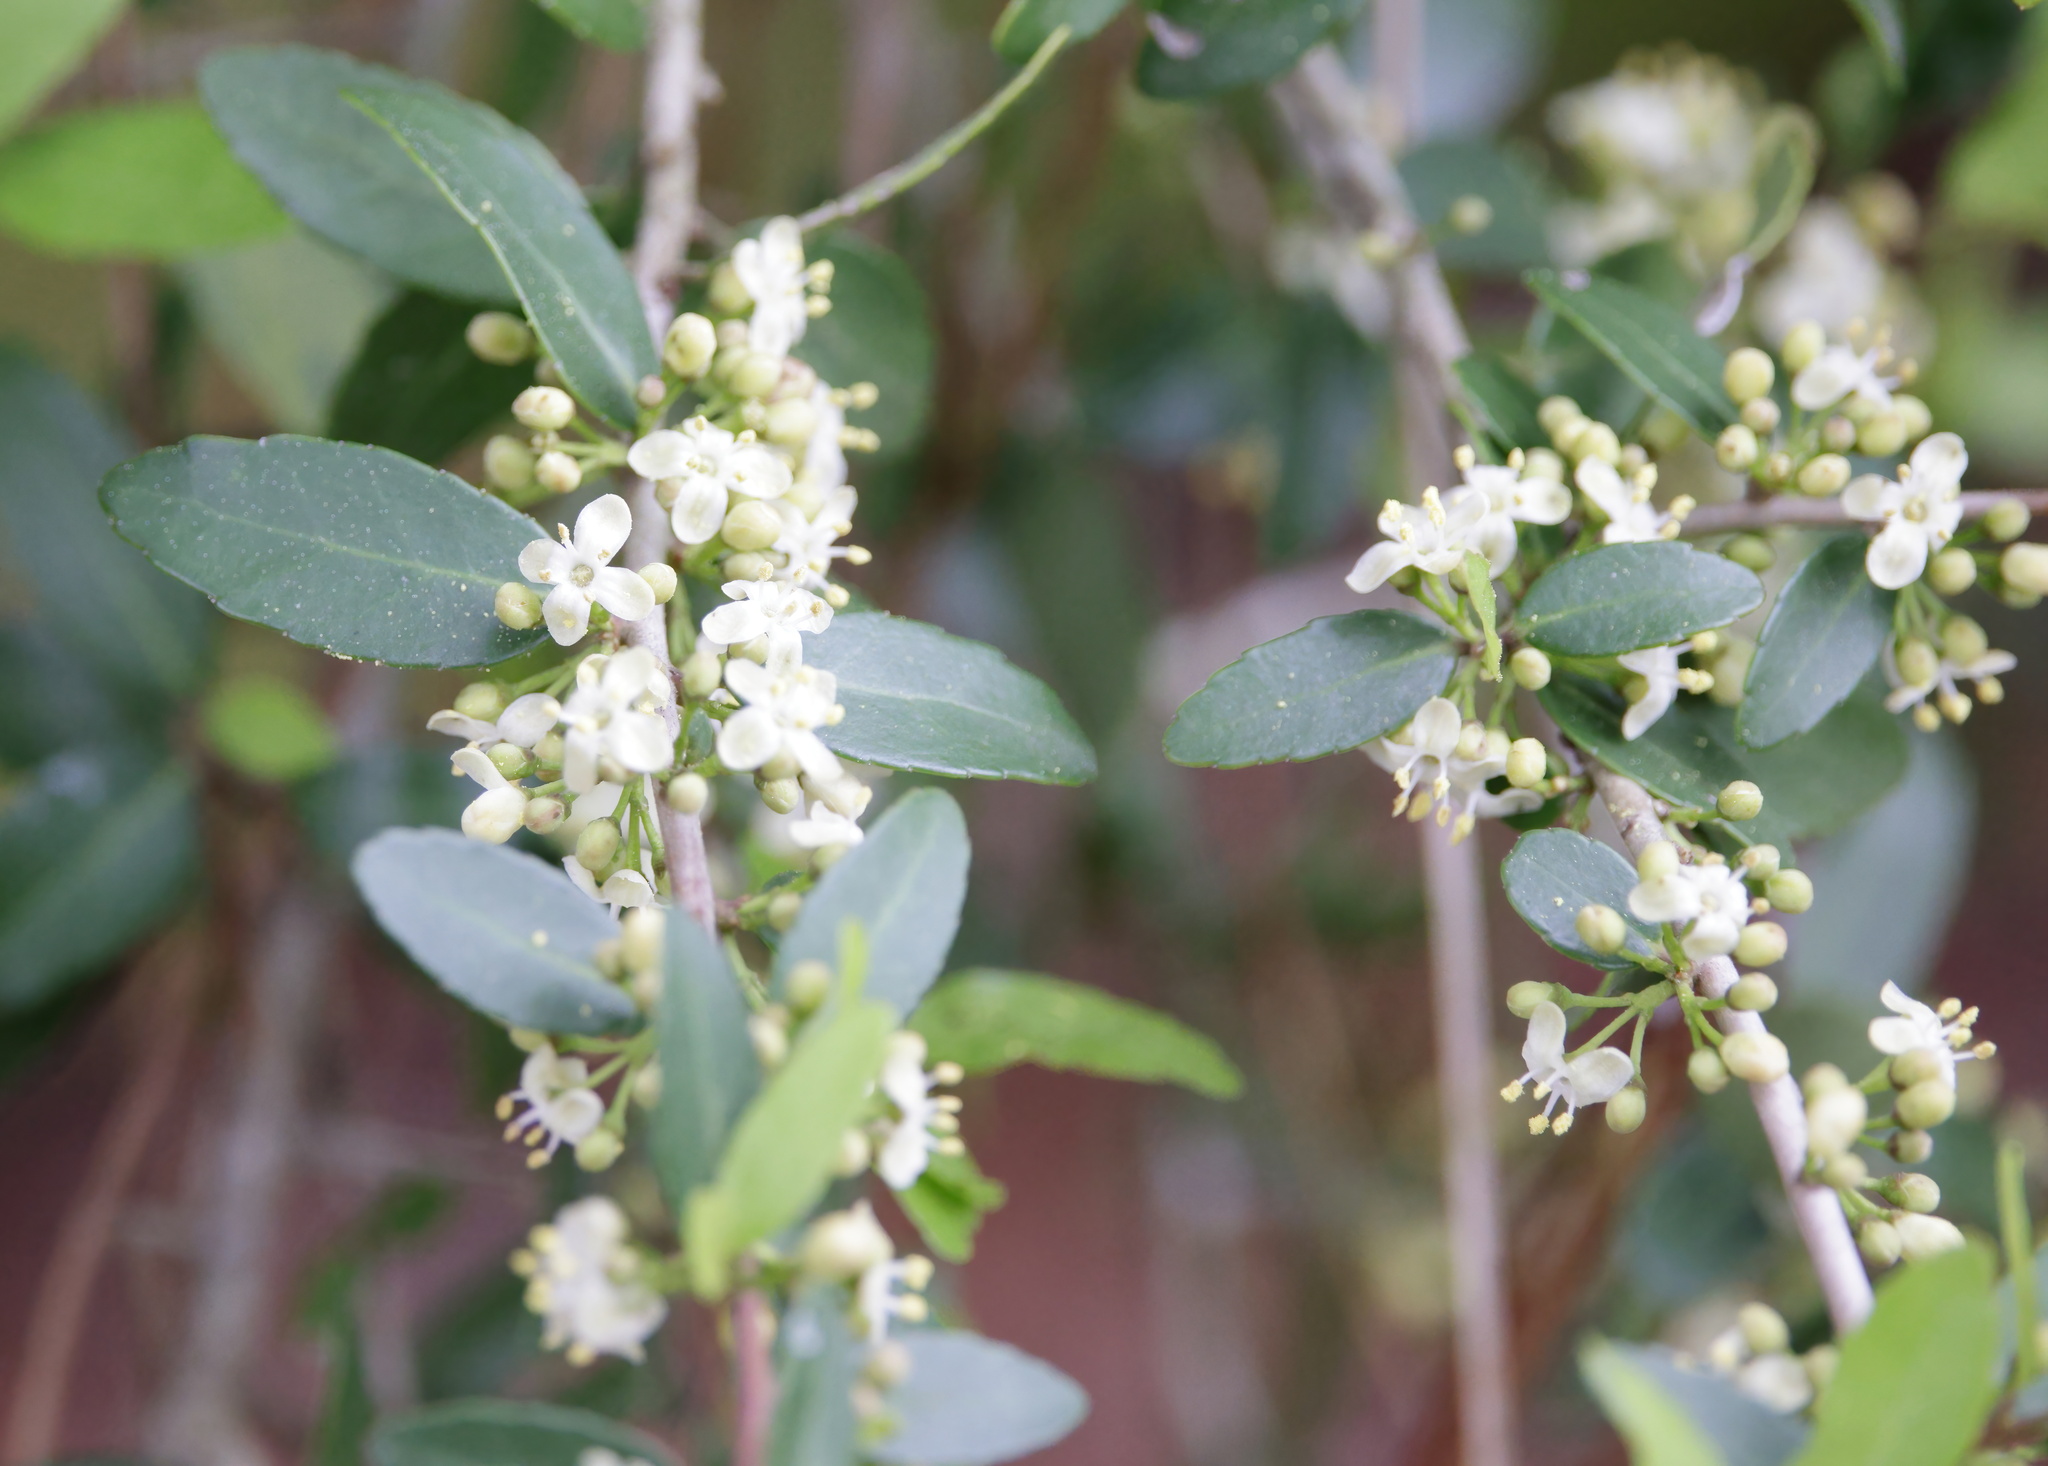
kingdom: Plantae
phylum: Tracheophyta
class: Magnoliopsida
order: Aquifoliales
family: Aquifoliaceae
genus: Ilex
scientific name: Ilex vomitoria
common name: Yaupon holly
